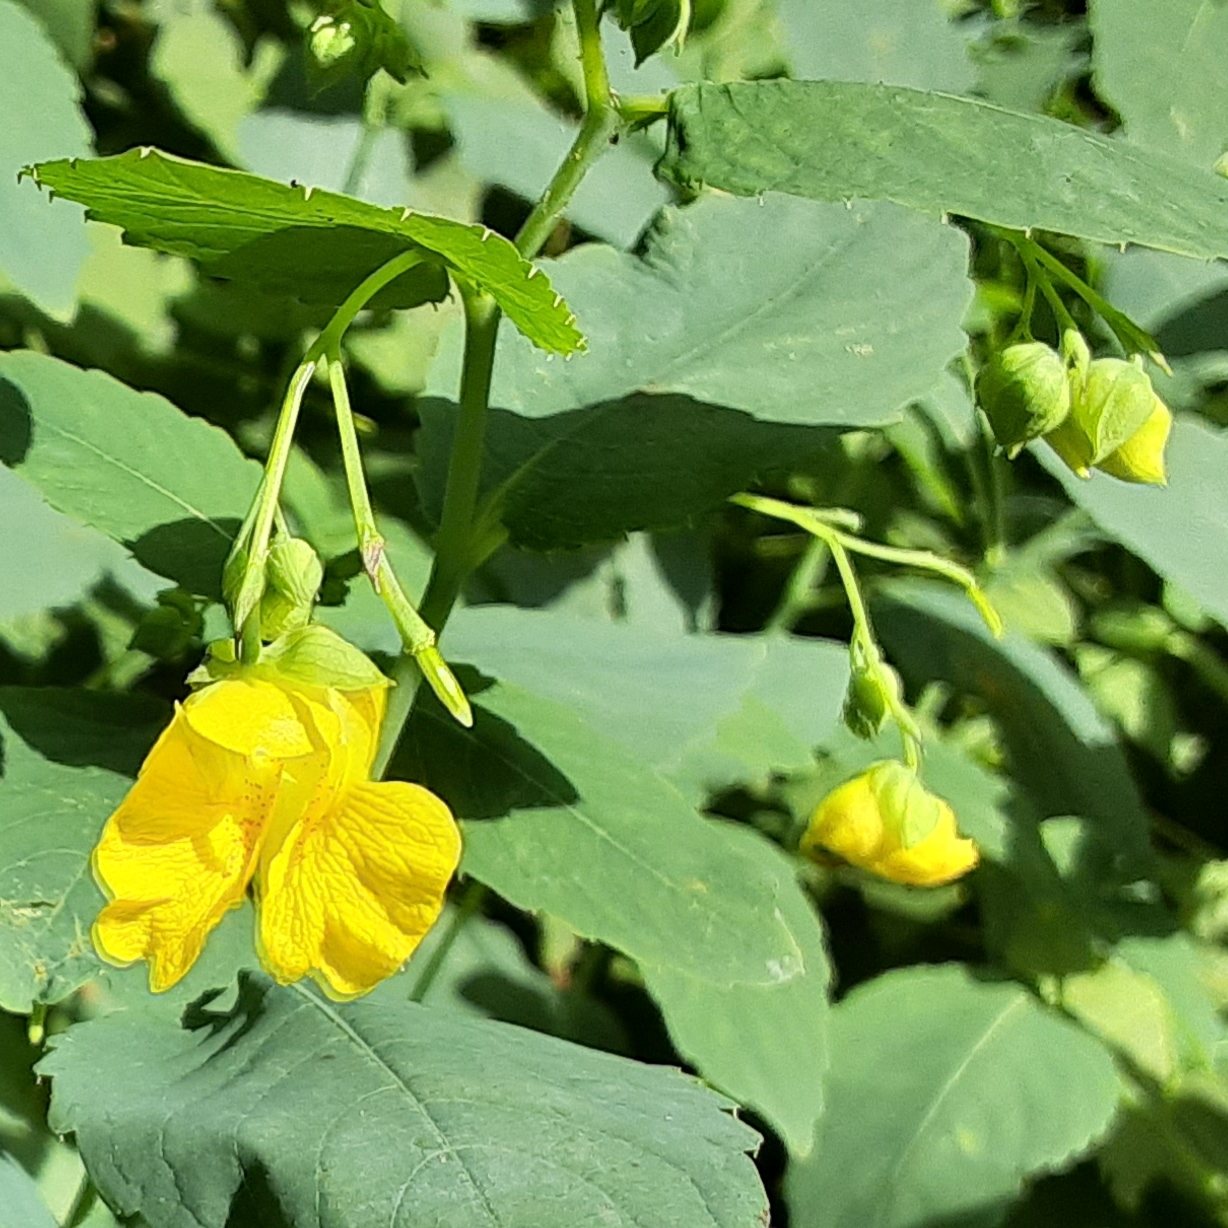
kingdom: Plantae
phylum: Tracheophyta
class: Magnoliopsida
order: Ericales
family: Balsaminaceae
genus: Impatiens
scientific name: Impatiens pallida
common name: Pale snapweed
